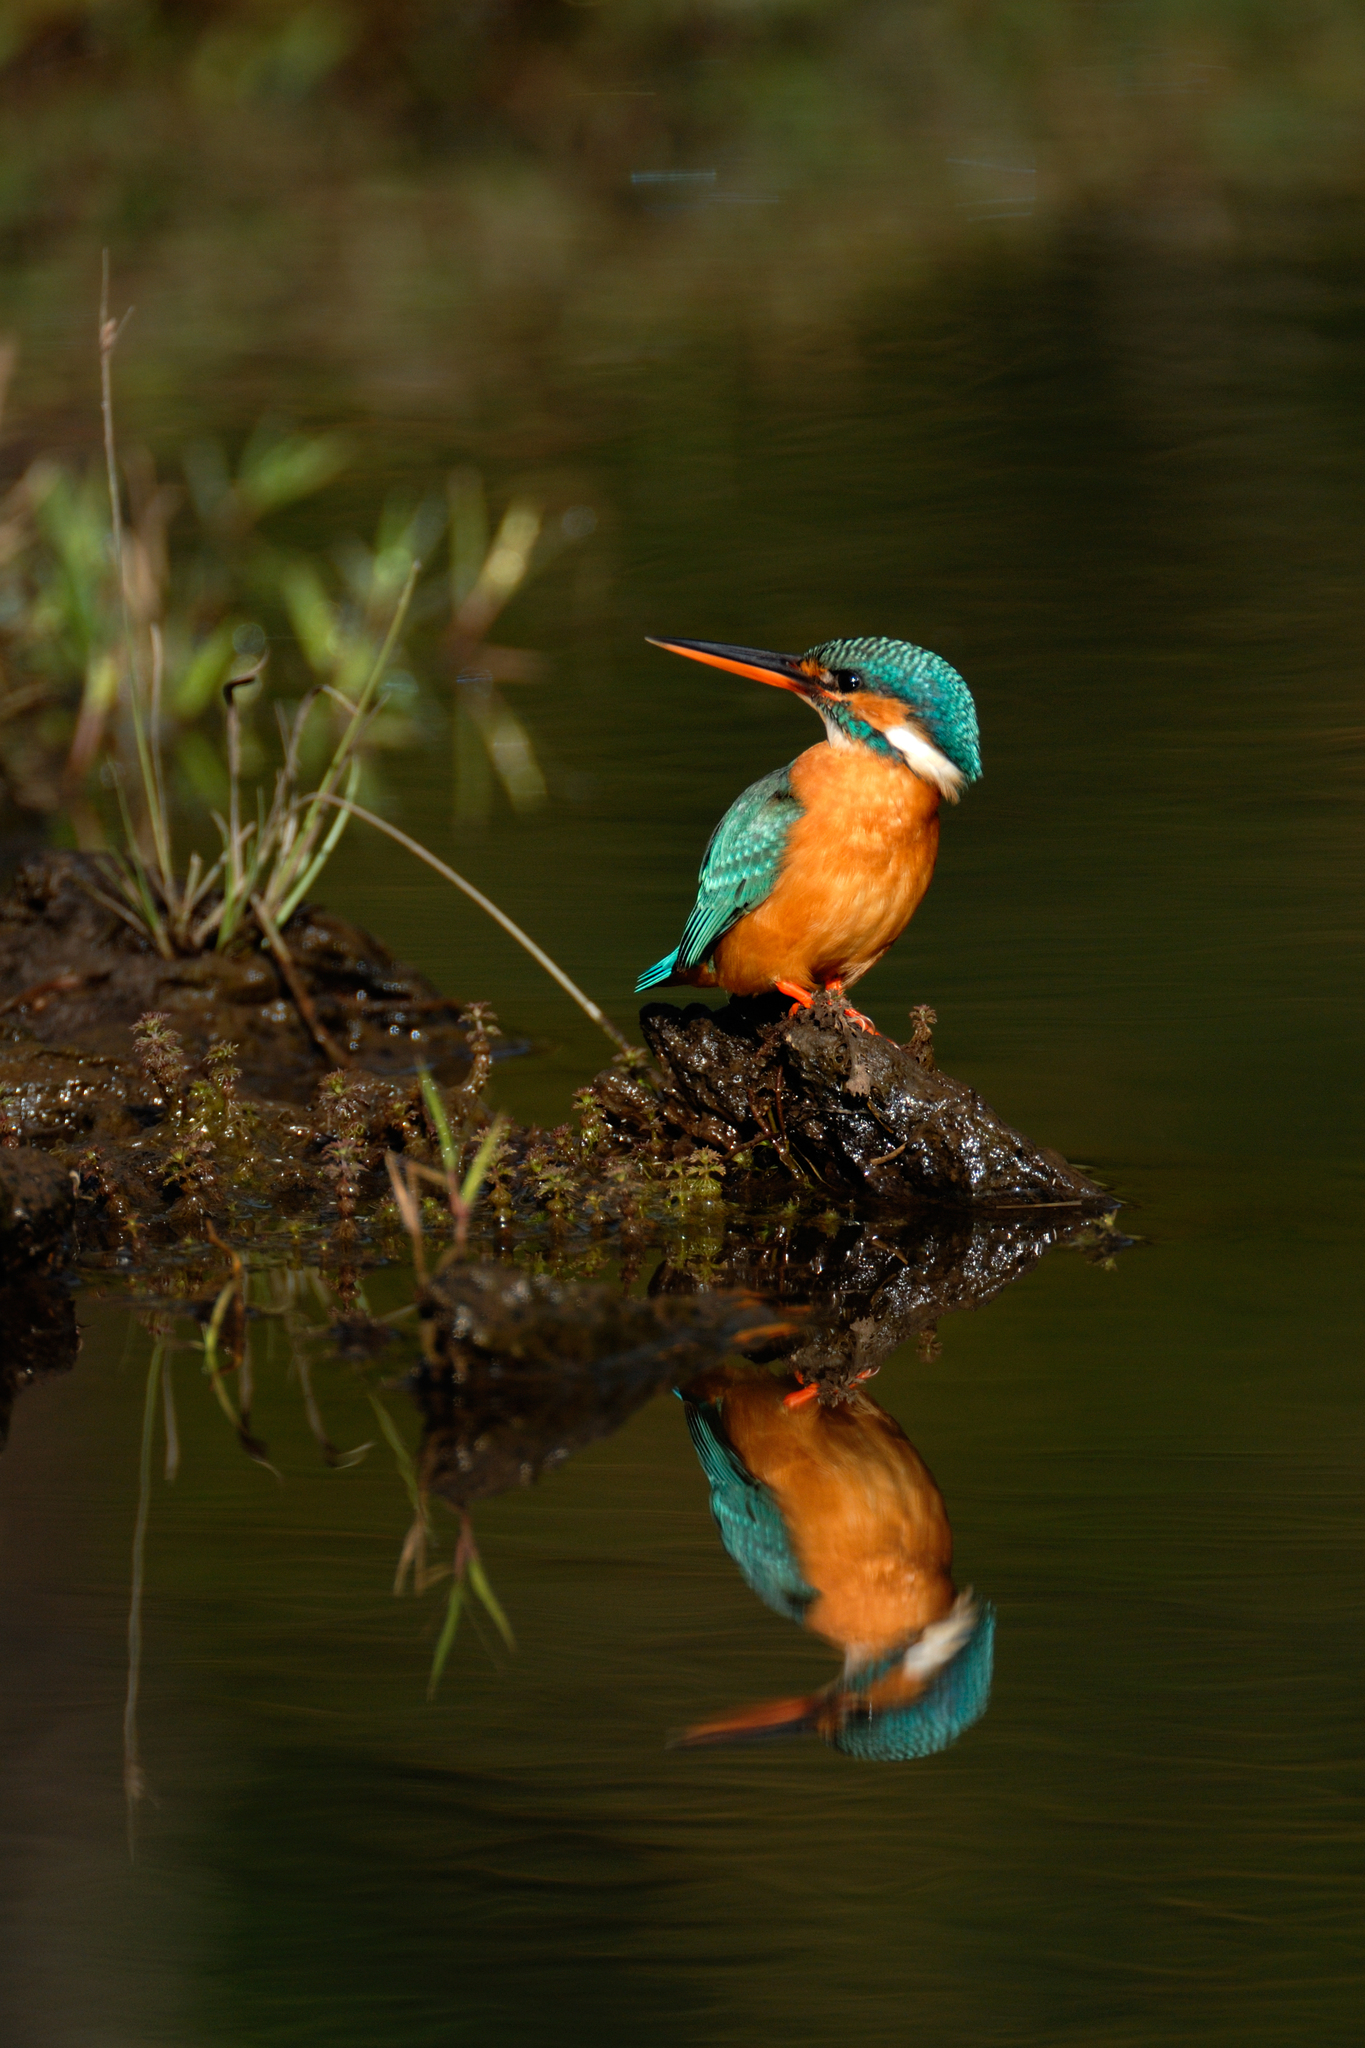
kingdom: Animalia
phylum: Chordata
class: Aves
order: Coraciiformes
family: Alcedinidae
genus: Alcedo
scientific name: Alcedo atthis
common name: Common kingfisher
